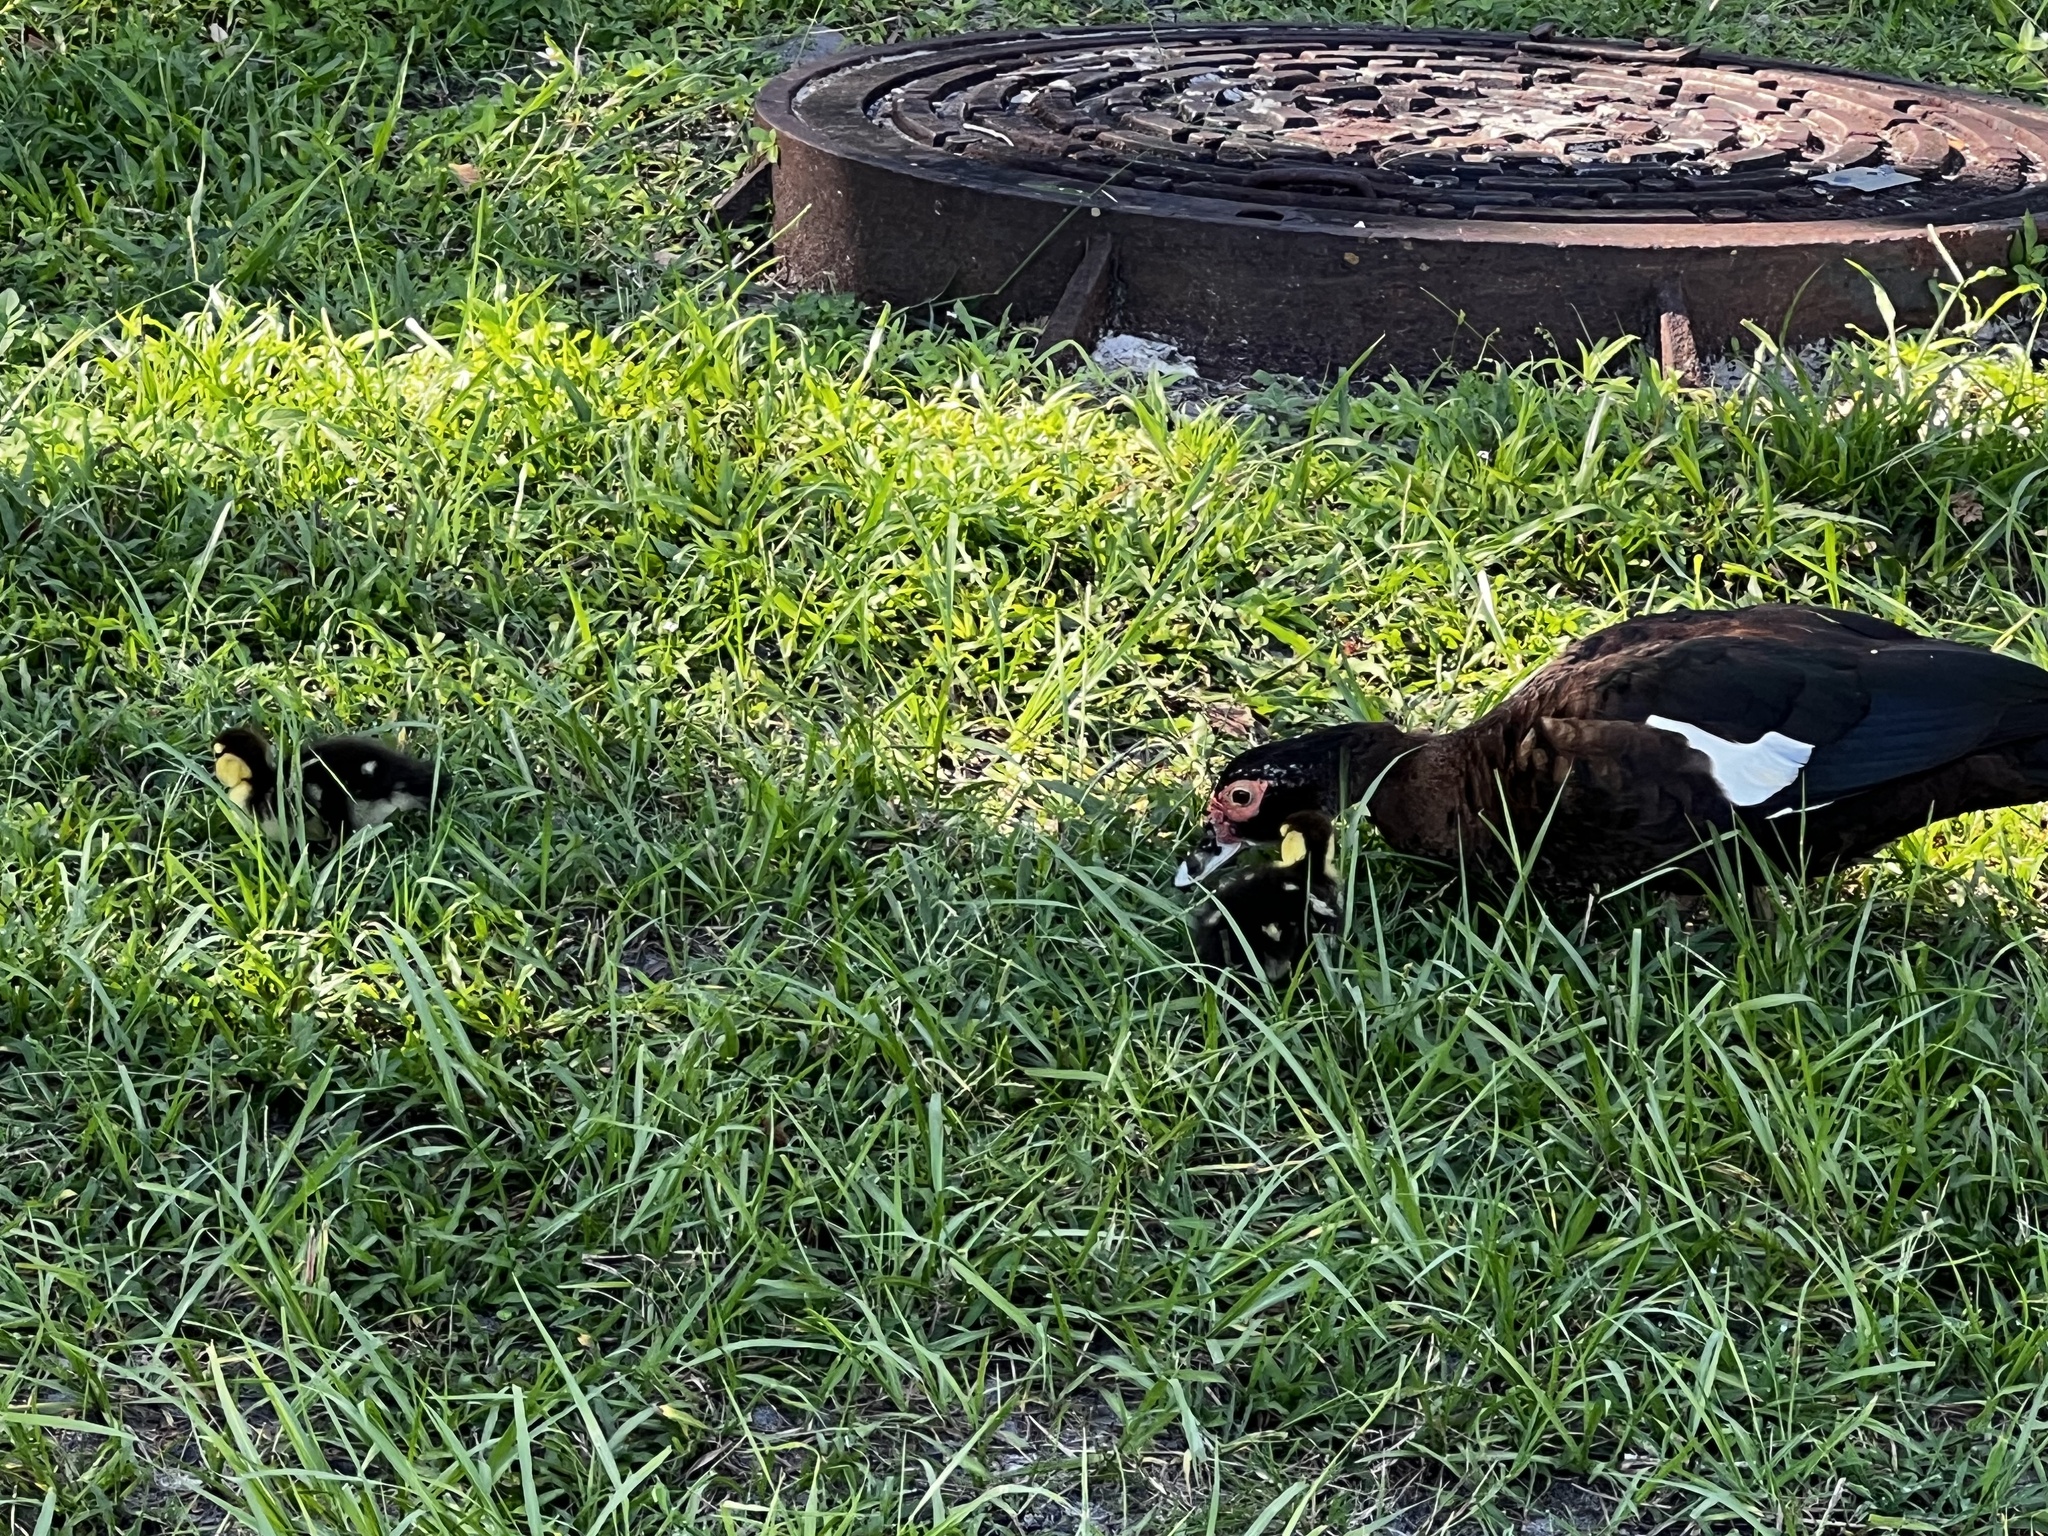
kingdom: Animalia
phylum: Chordata
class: Aves
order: Anseriformes
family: Anatidae
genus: Cairina
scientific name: Cairina moschata
